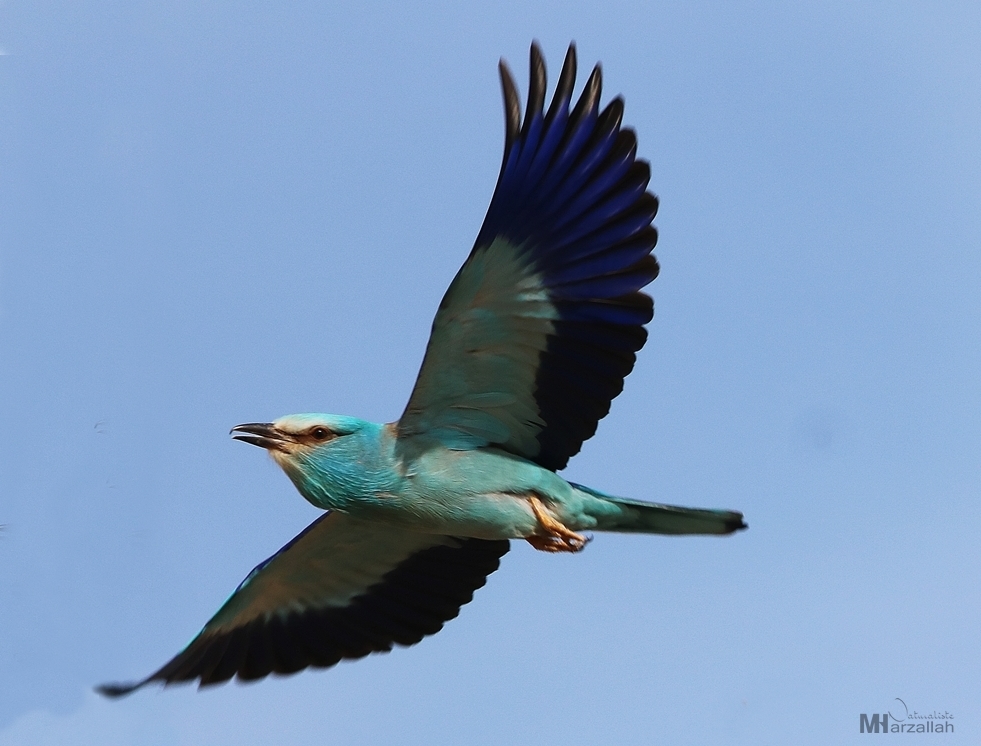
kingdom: Animalia
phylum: Chordata
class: Aves
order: Coraciiformes
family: Coraciidae
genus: Coracias
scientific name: Coracias garrulus
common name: European roller
